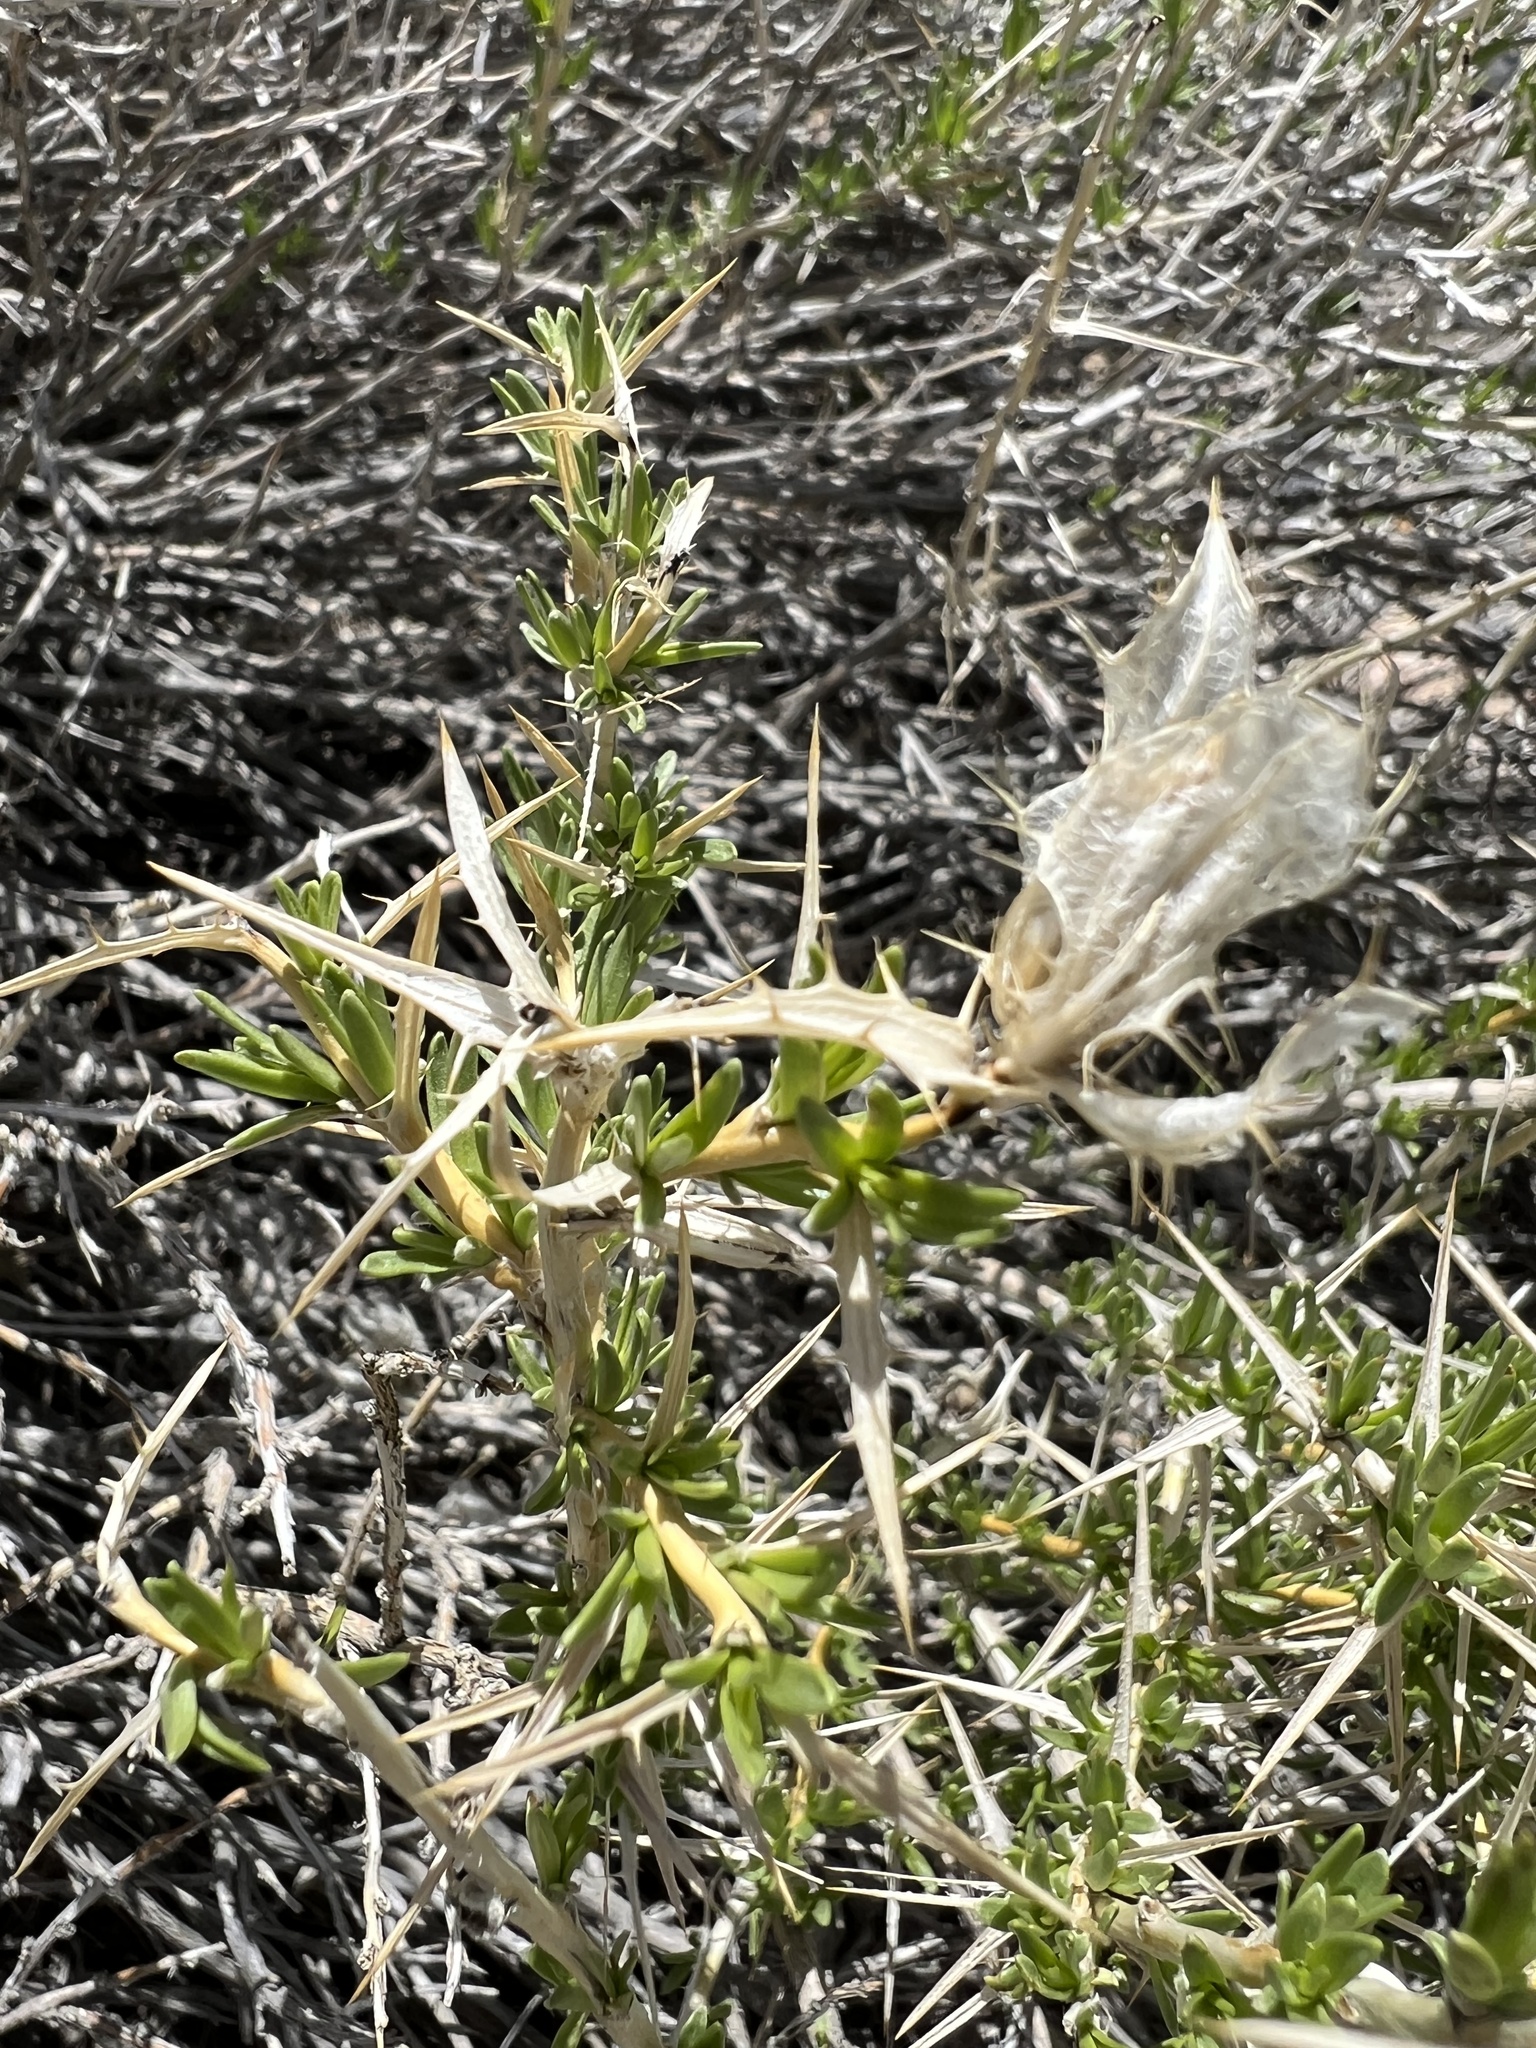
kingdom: Plantae
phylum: Tracheophyta
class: Magnoliopsida
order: Asterales
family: Asteraceae
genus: Hecastocleis
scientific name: Hecastocleis shockleyi
